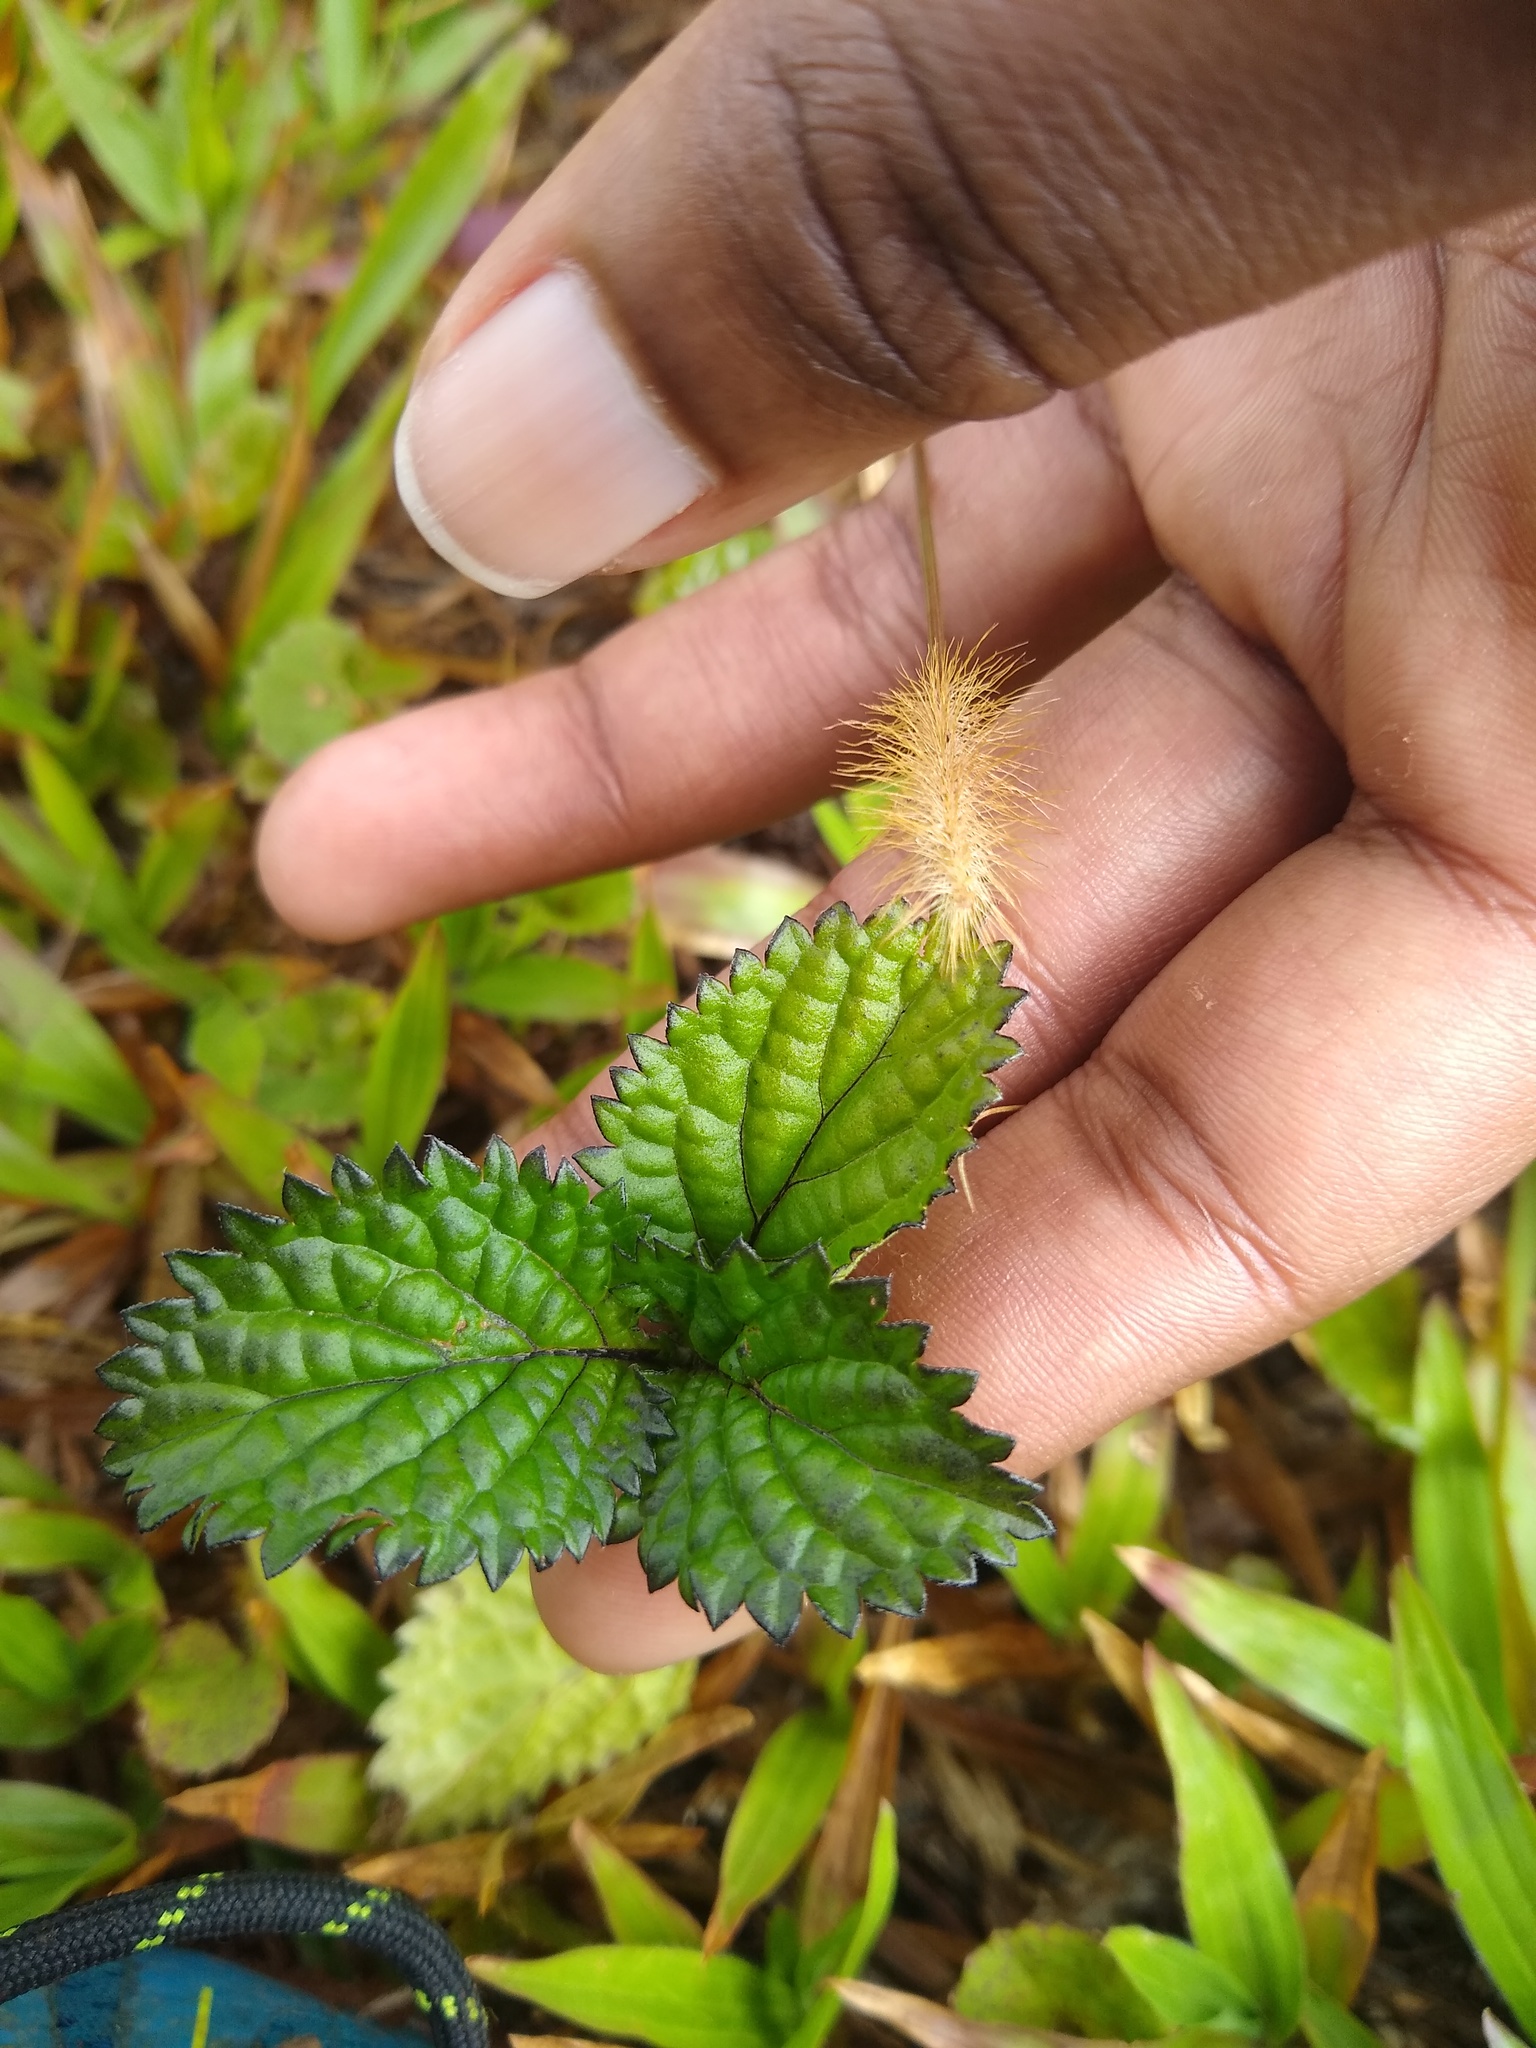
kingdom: Plantae
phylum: Tracheophyta
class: Magnoliopsida
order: Lamiales
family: Verbenaceae
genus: Stachytarpheta
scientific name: Stachytarpheta cayennensis
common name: Cayenne porterweed
